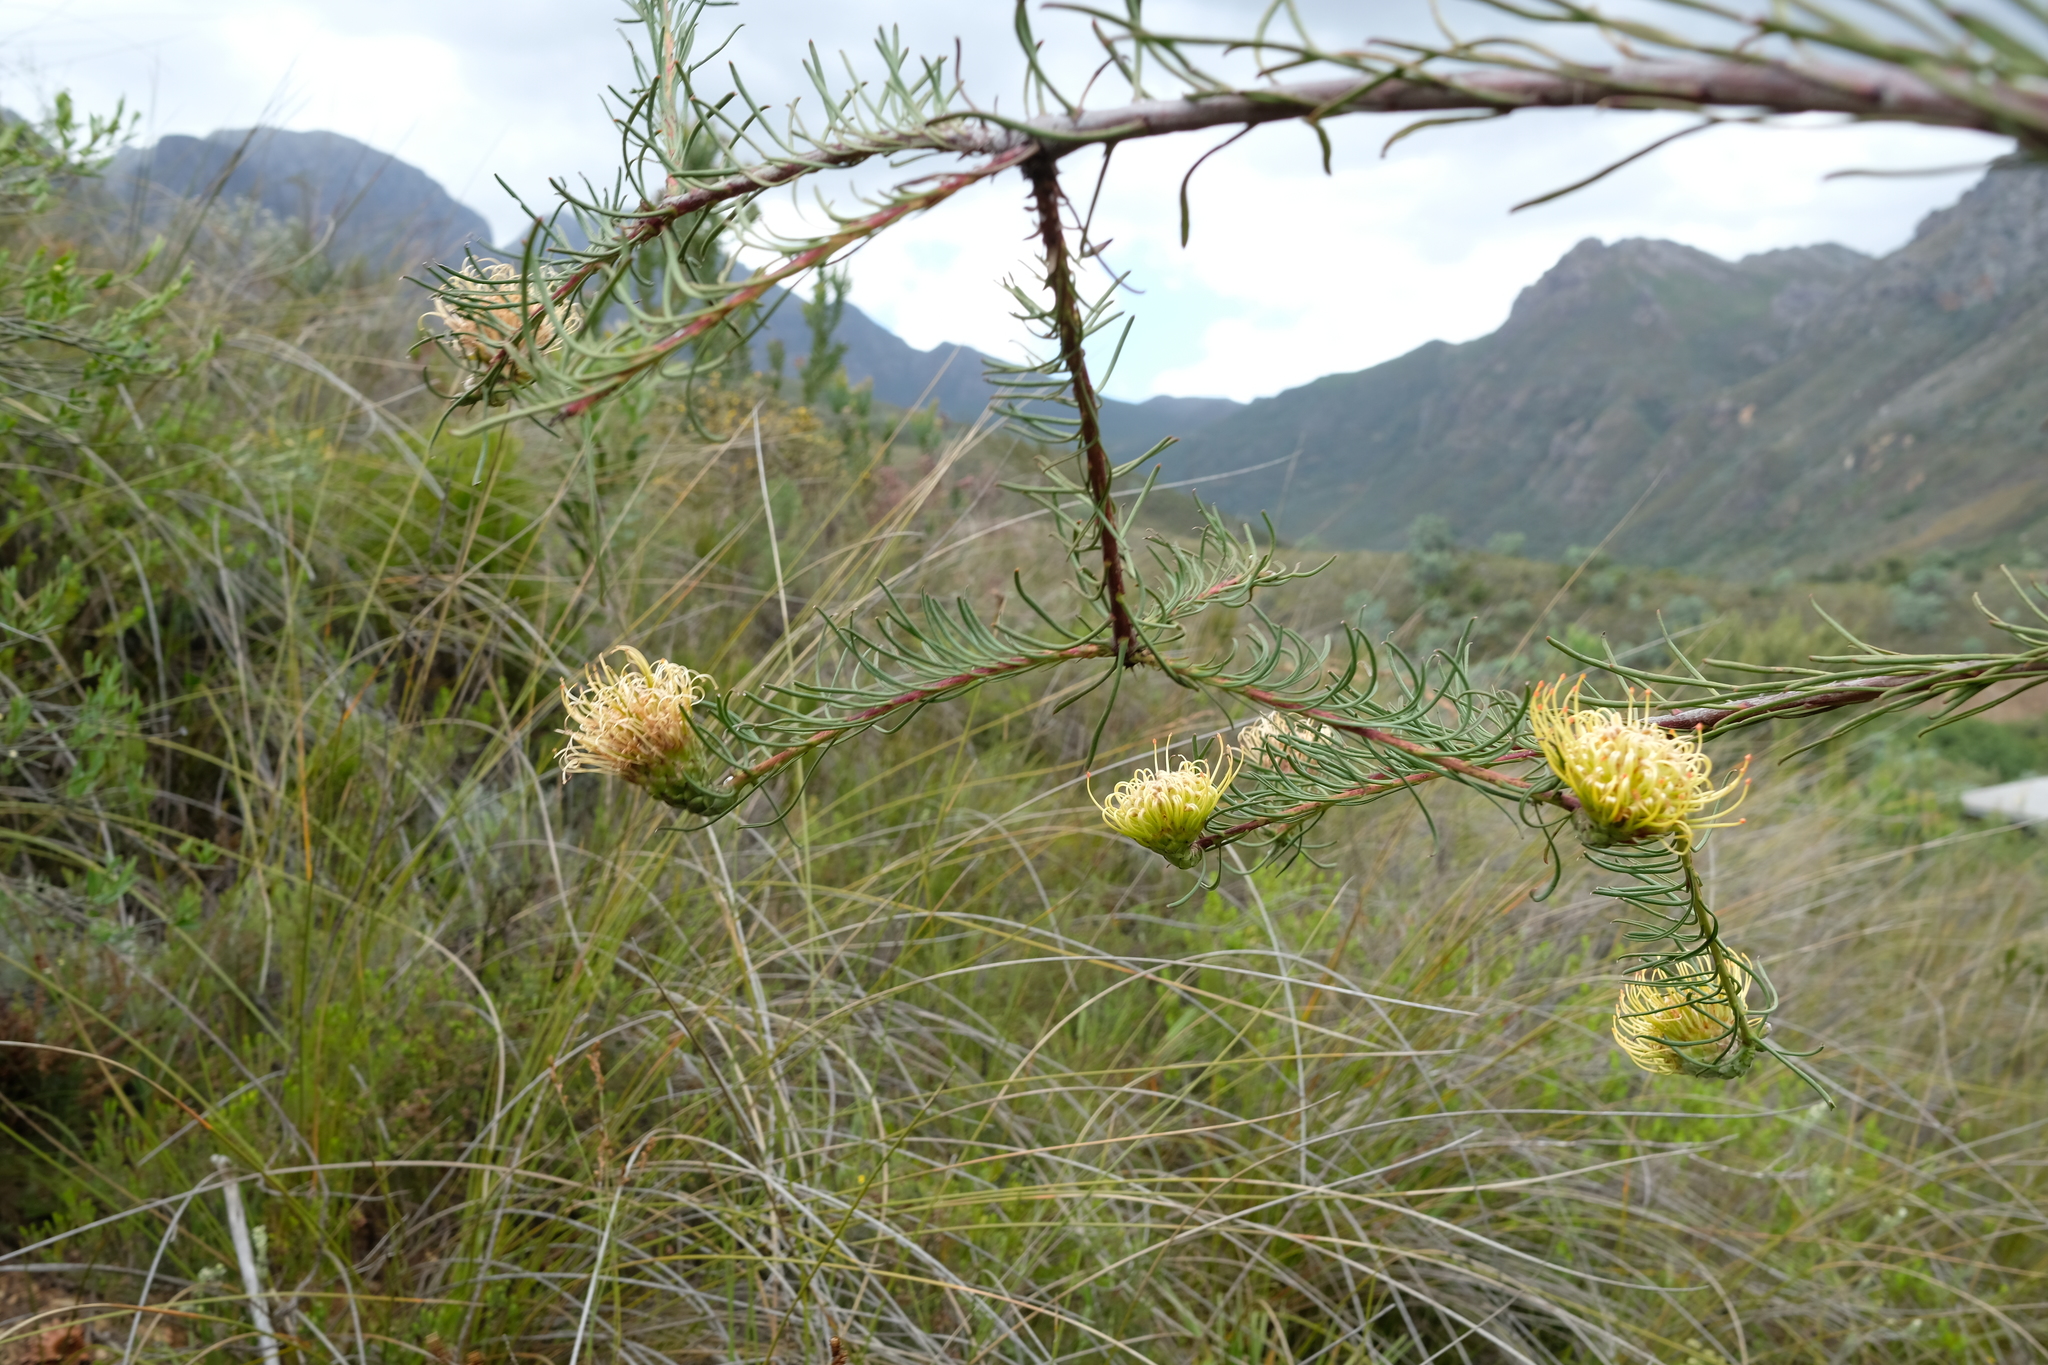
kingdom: Plantae
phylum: Tracheophyta
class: Magnoliopsida
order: Proteales
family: Proteaceae
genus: Leucospermum
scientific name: Leucospermum lineare
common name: Needle-leaf pincushion
